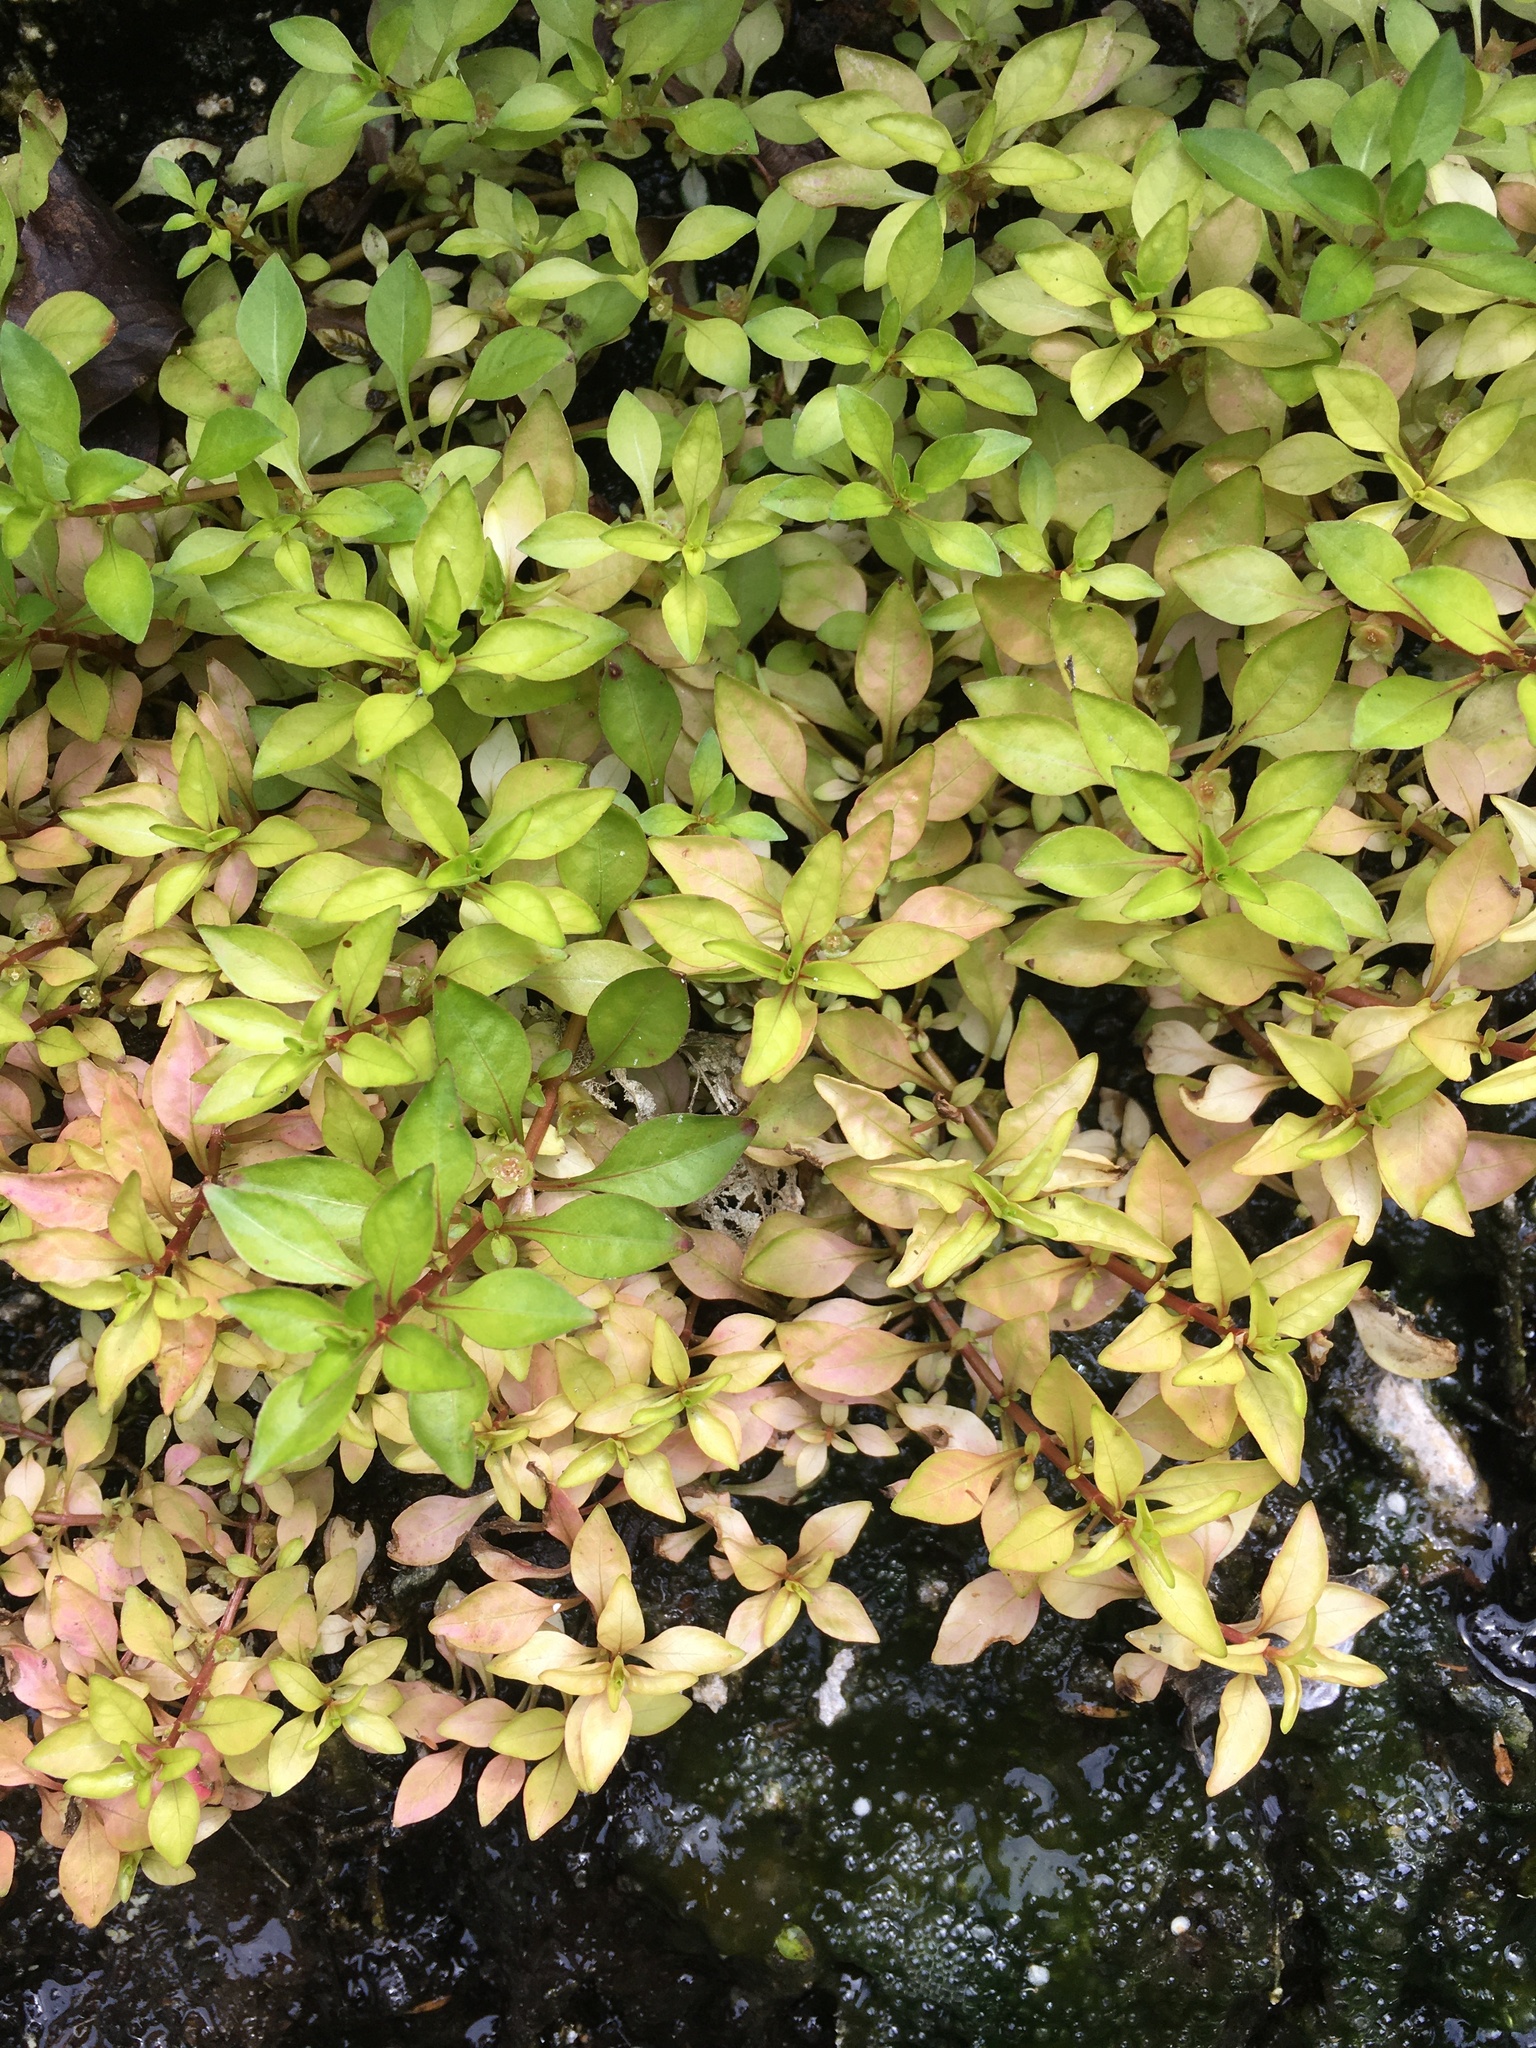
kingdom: Plantae
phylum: Tracheophyta
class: Magnoliopsida
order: Myrtales
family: Onagraceae
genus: Ludwigia
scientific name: Ludwigia palustris
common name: Hampshire-purslane
